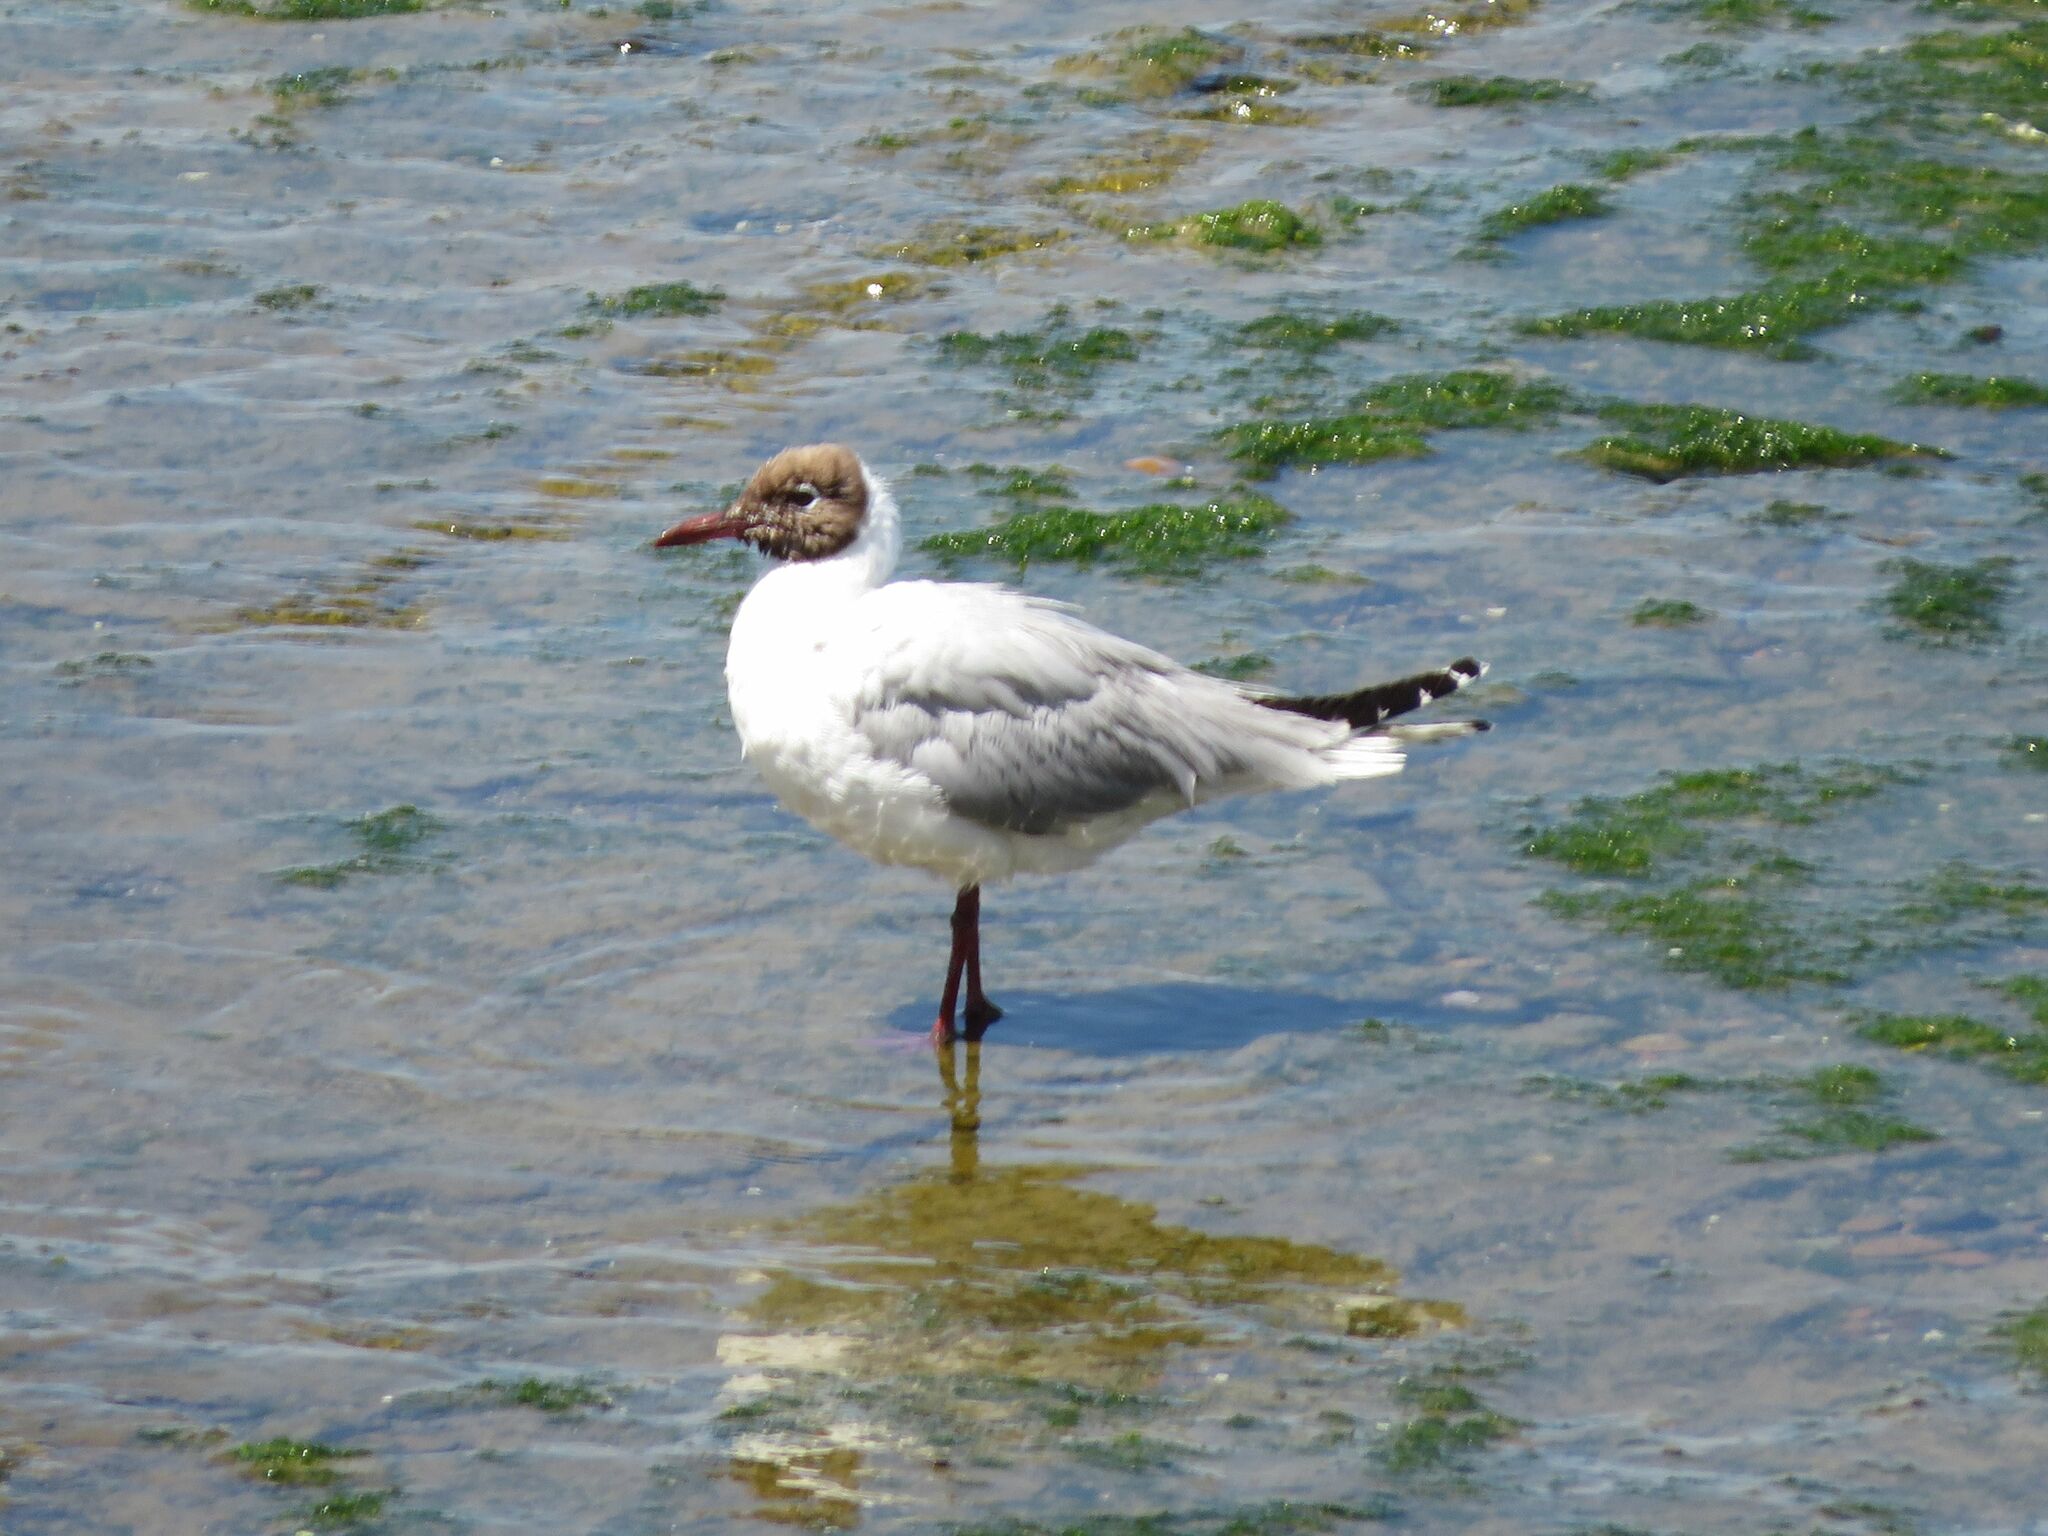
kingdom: Animalia
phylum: Chordata
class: Aves
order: Charadriiformes
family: Laridae
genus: Chroicocephalus
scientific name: Chroicocephalus maculipennis
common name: Brown-hooded gull
